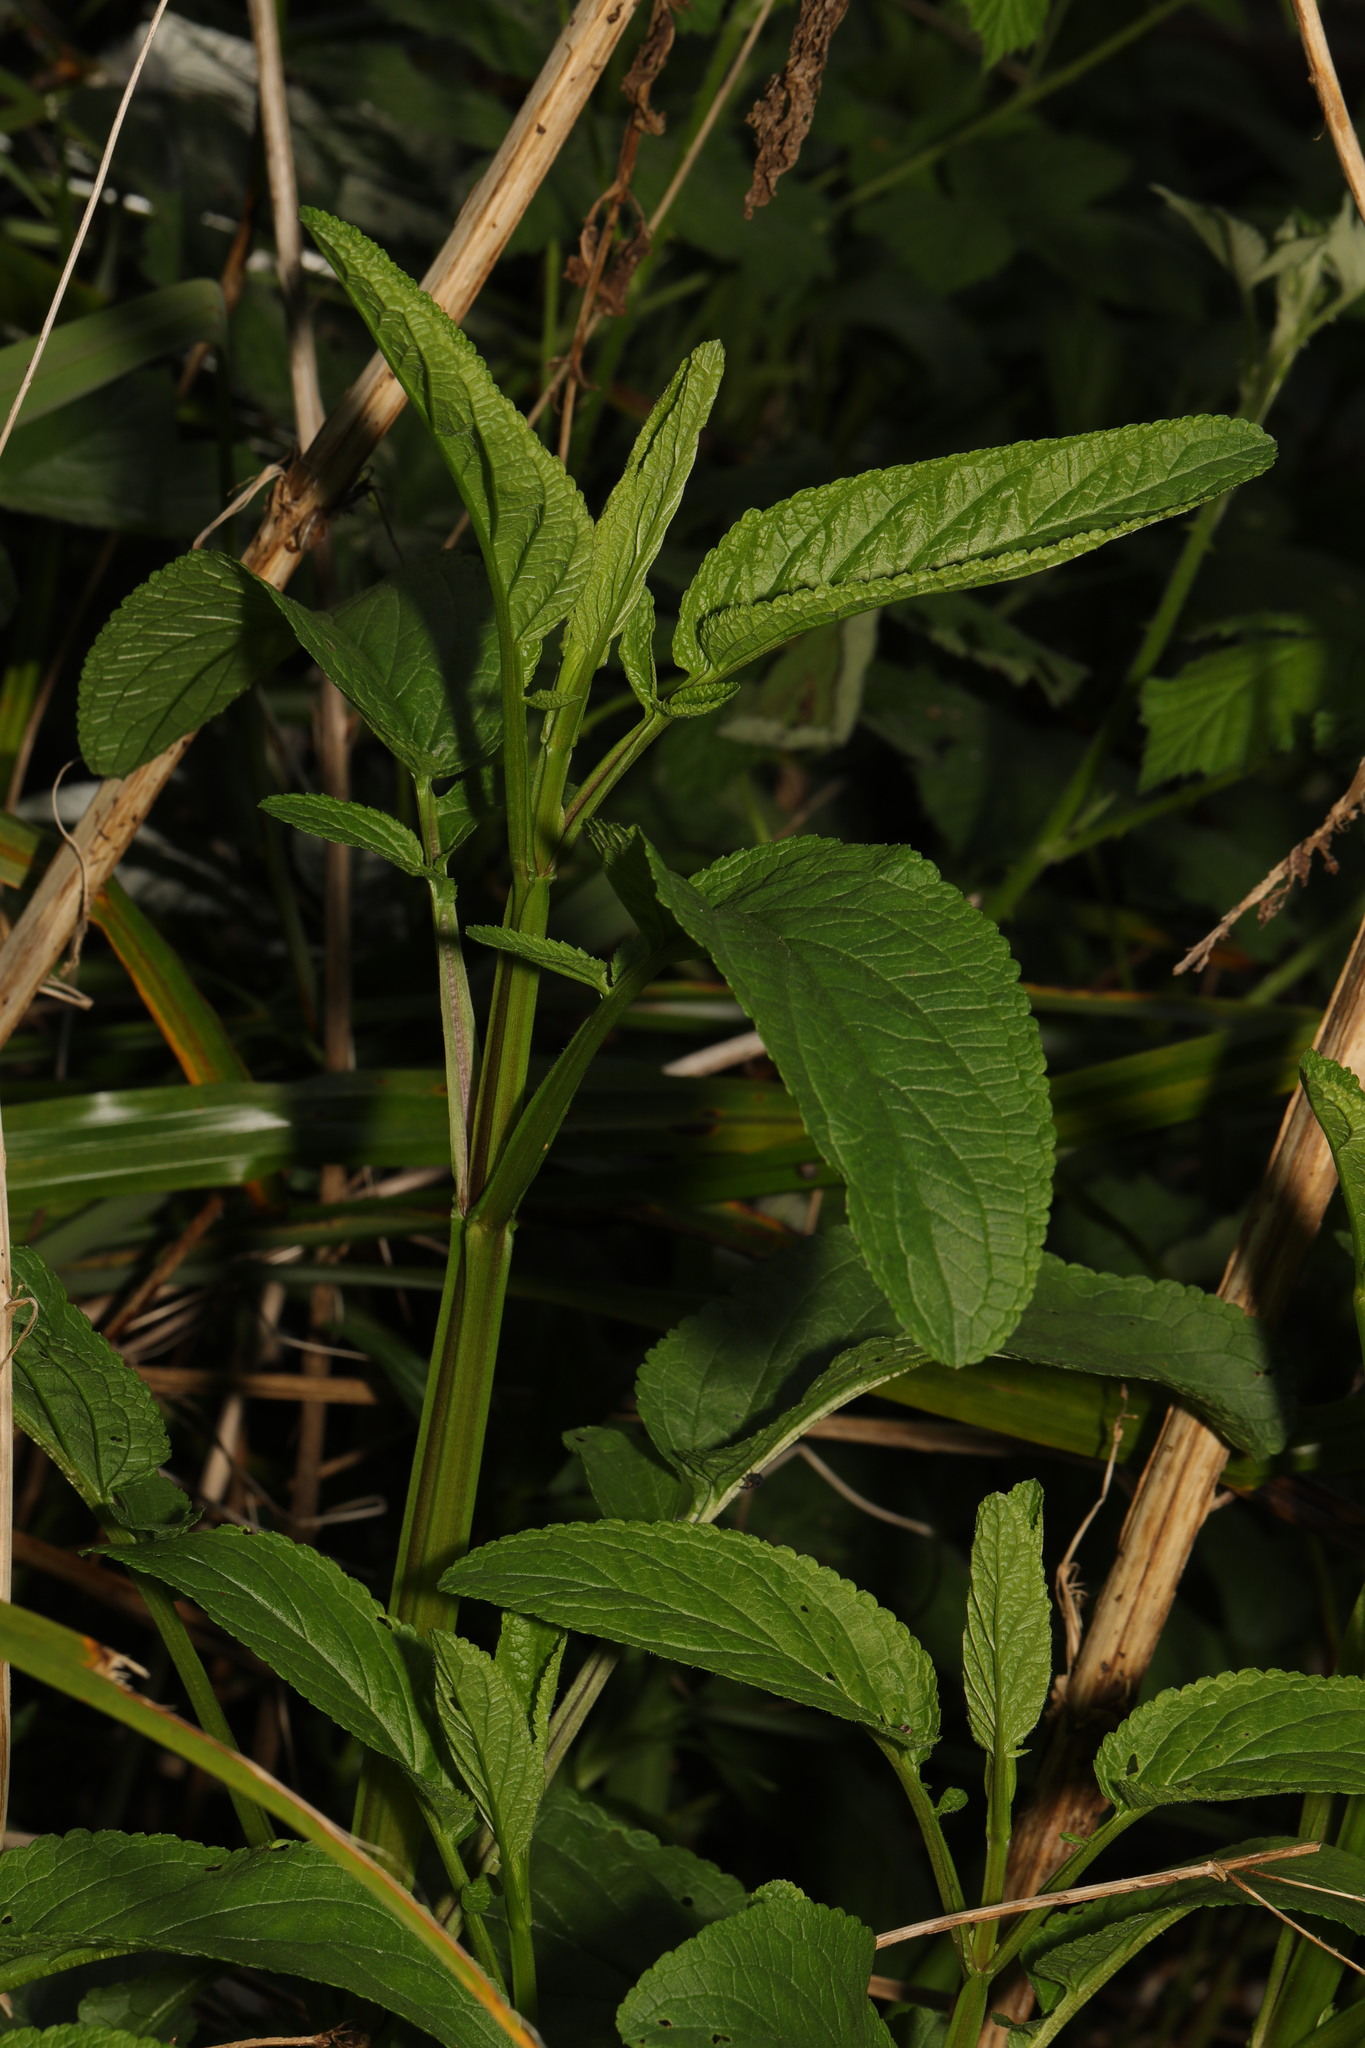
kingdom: Plantae
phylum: Tracheophyta
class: Magnoliopsida
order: Lamiales
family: Scrophulariaceae
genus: Scrophularia
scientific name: Scrophularia auriculata
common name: Water betony
